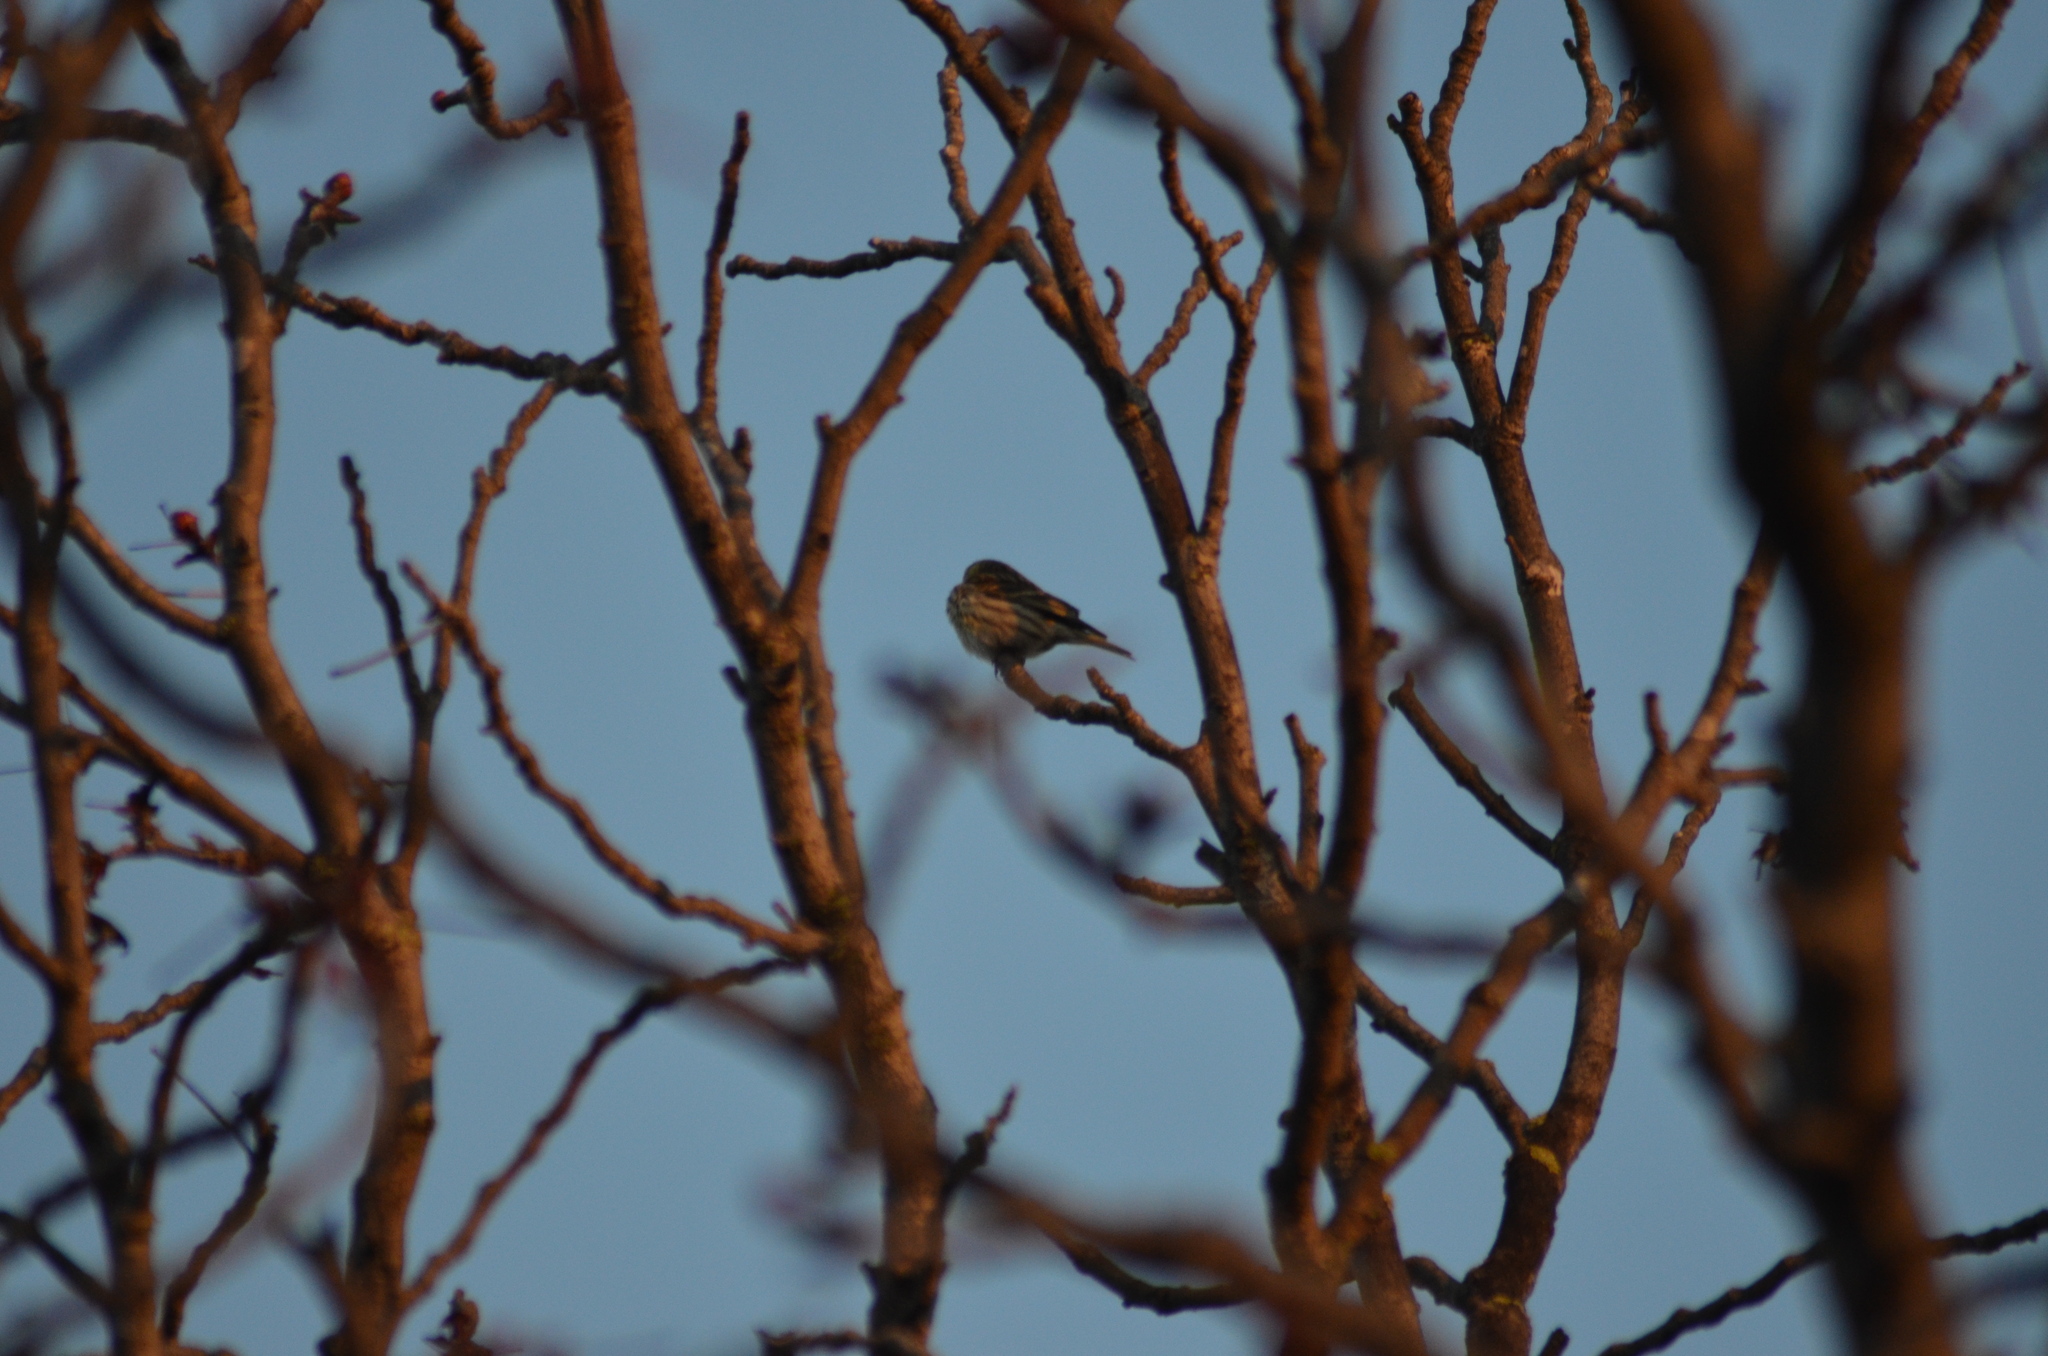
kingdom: Animalia
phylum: Chordata
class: Aves
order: Passeriformes
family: Fringillidae
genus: Serinus
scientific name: Serinus serinus
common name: European serin
